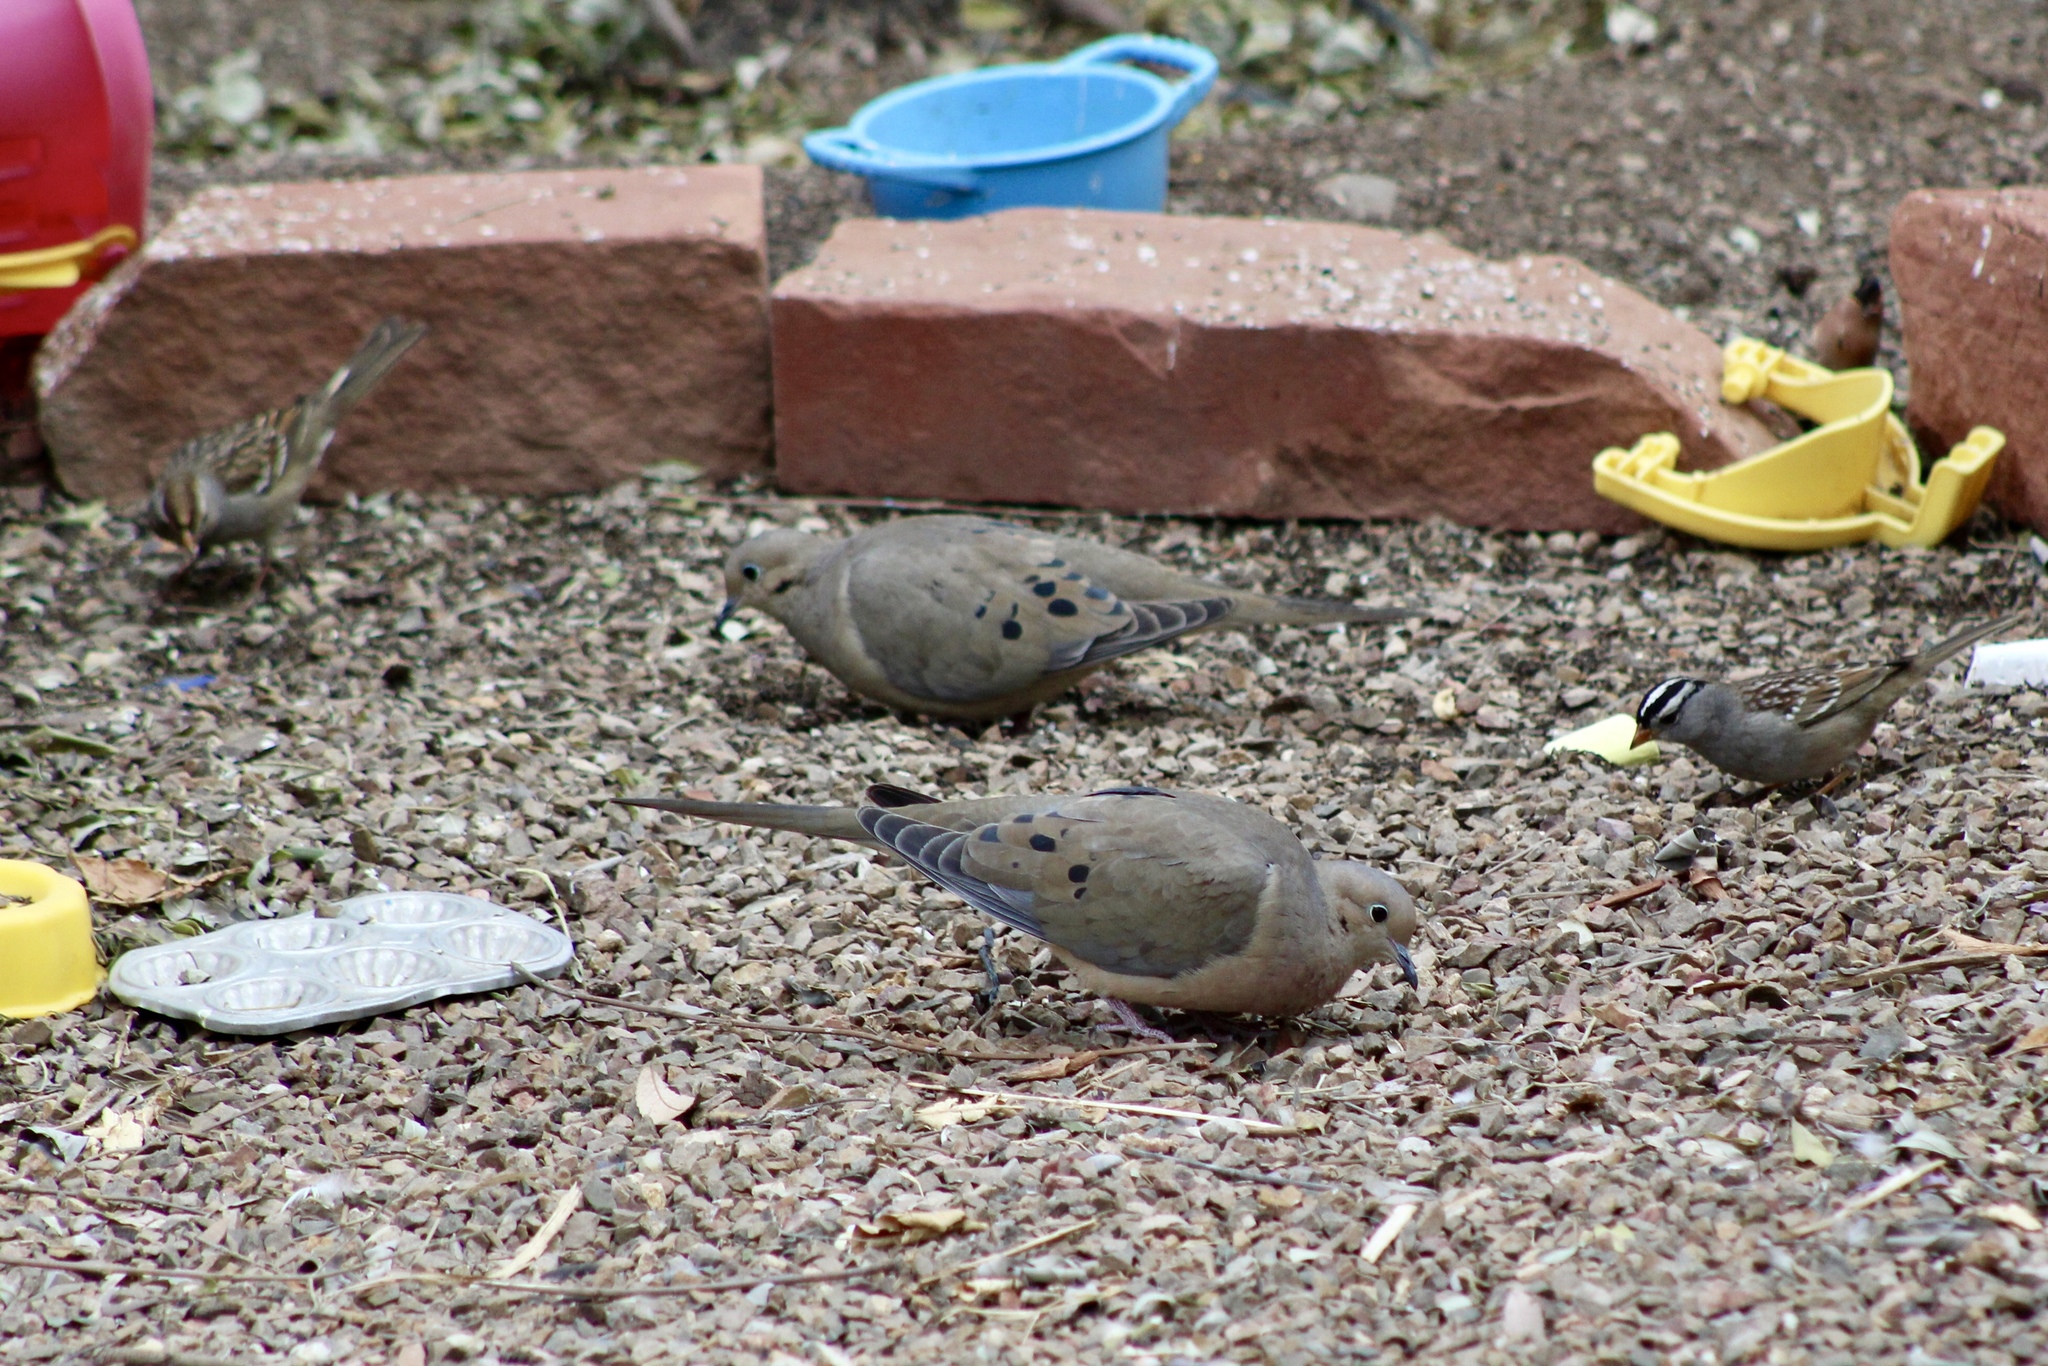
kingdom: Animalia
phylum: Chordata
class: Aves
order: Columbiformes
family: Columbidae
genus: Zenaida
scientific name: Zenaida macroura
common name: Mourning dove
